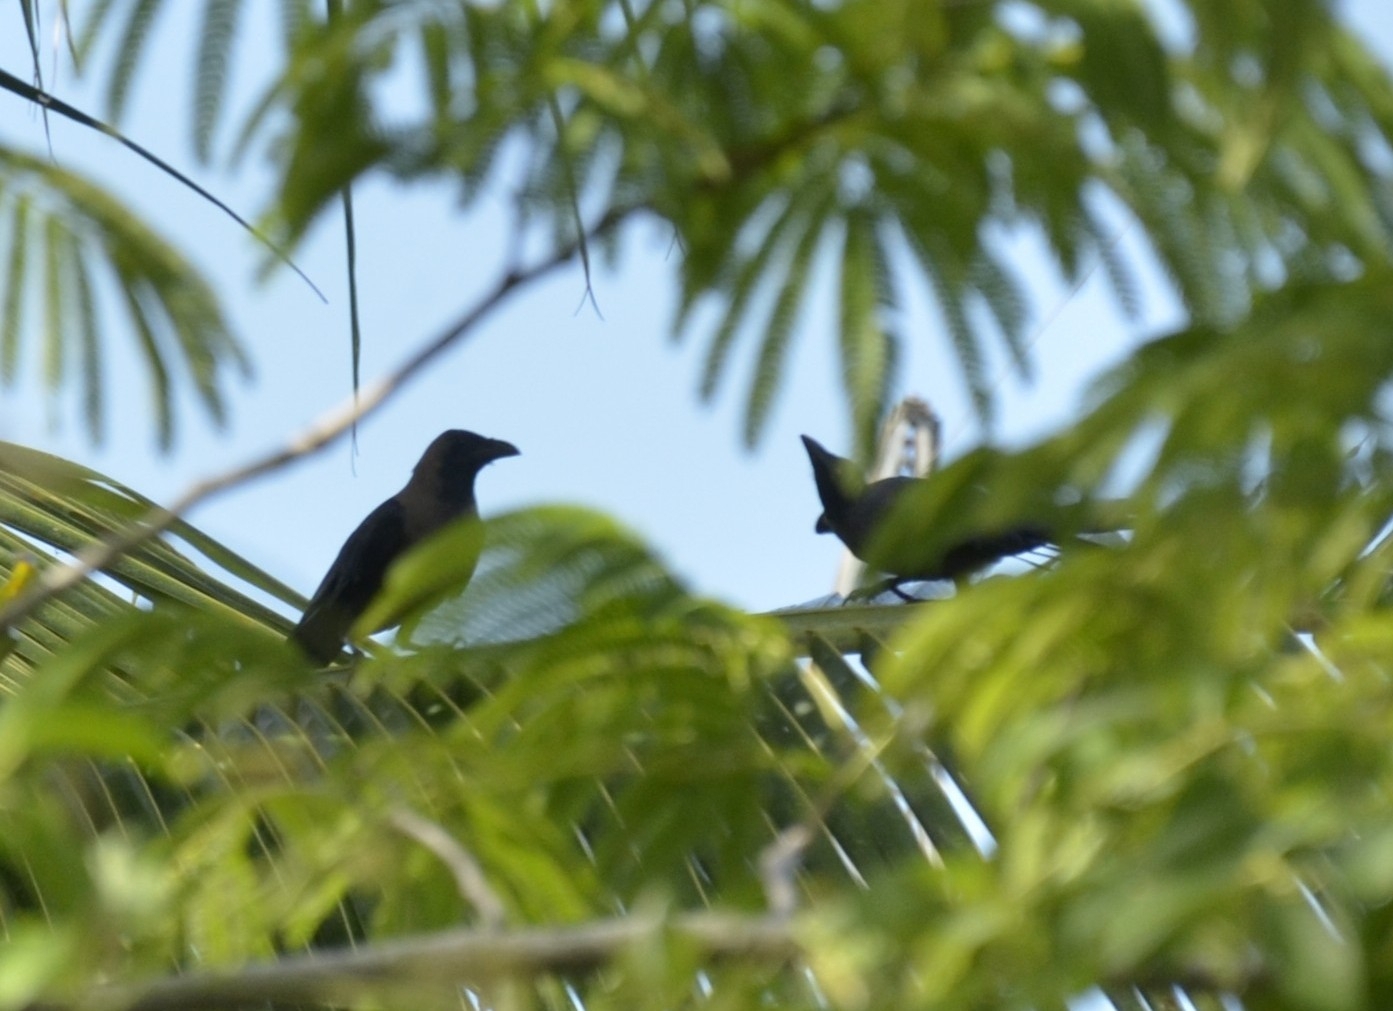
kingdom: Animalia
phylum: Chordata
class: Aves
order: Passeriformes
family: Corvidae
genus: Corvus
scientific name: Corvus splendens
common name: House crow
